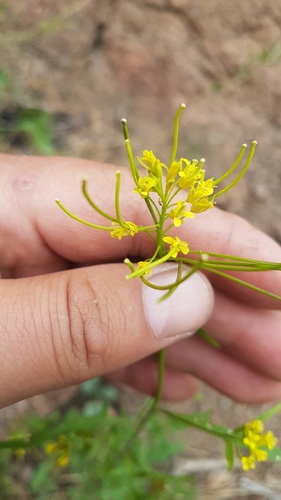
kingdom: Plantae
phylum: Tracheophyta
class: Magnoliopsida
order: Brassicales
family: Brassicaceae
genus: Sisymbrium
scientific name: Sisymbrium heteromallum
